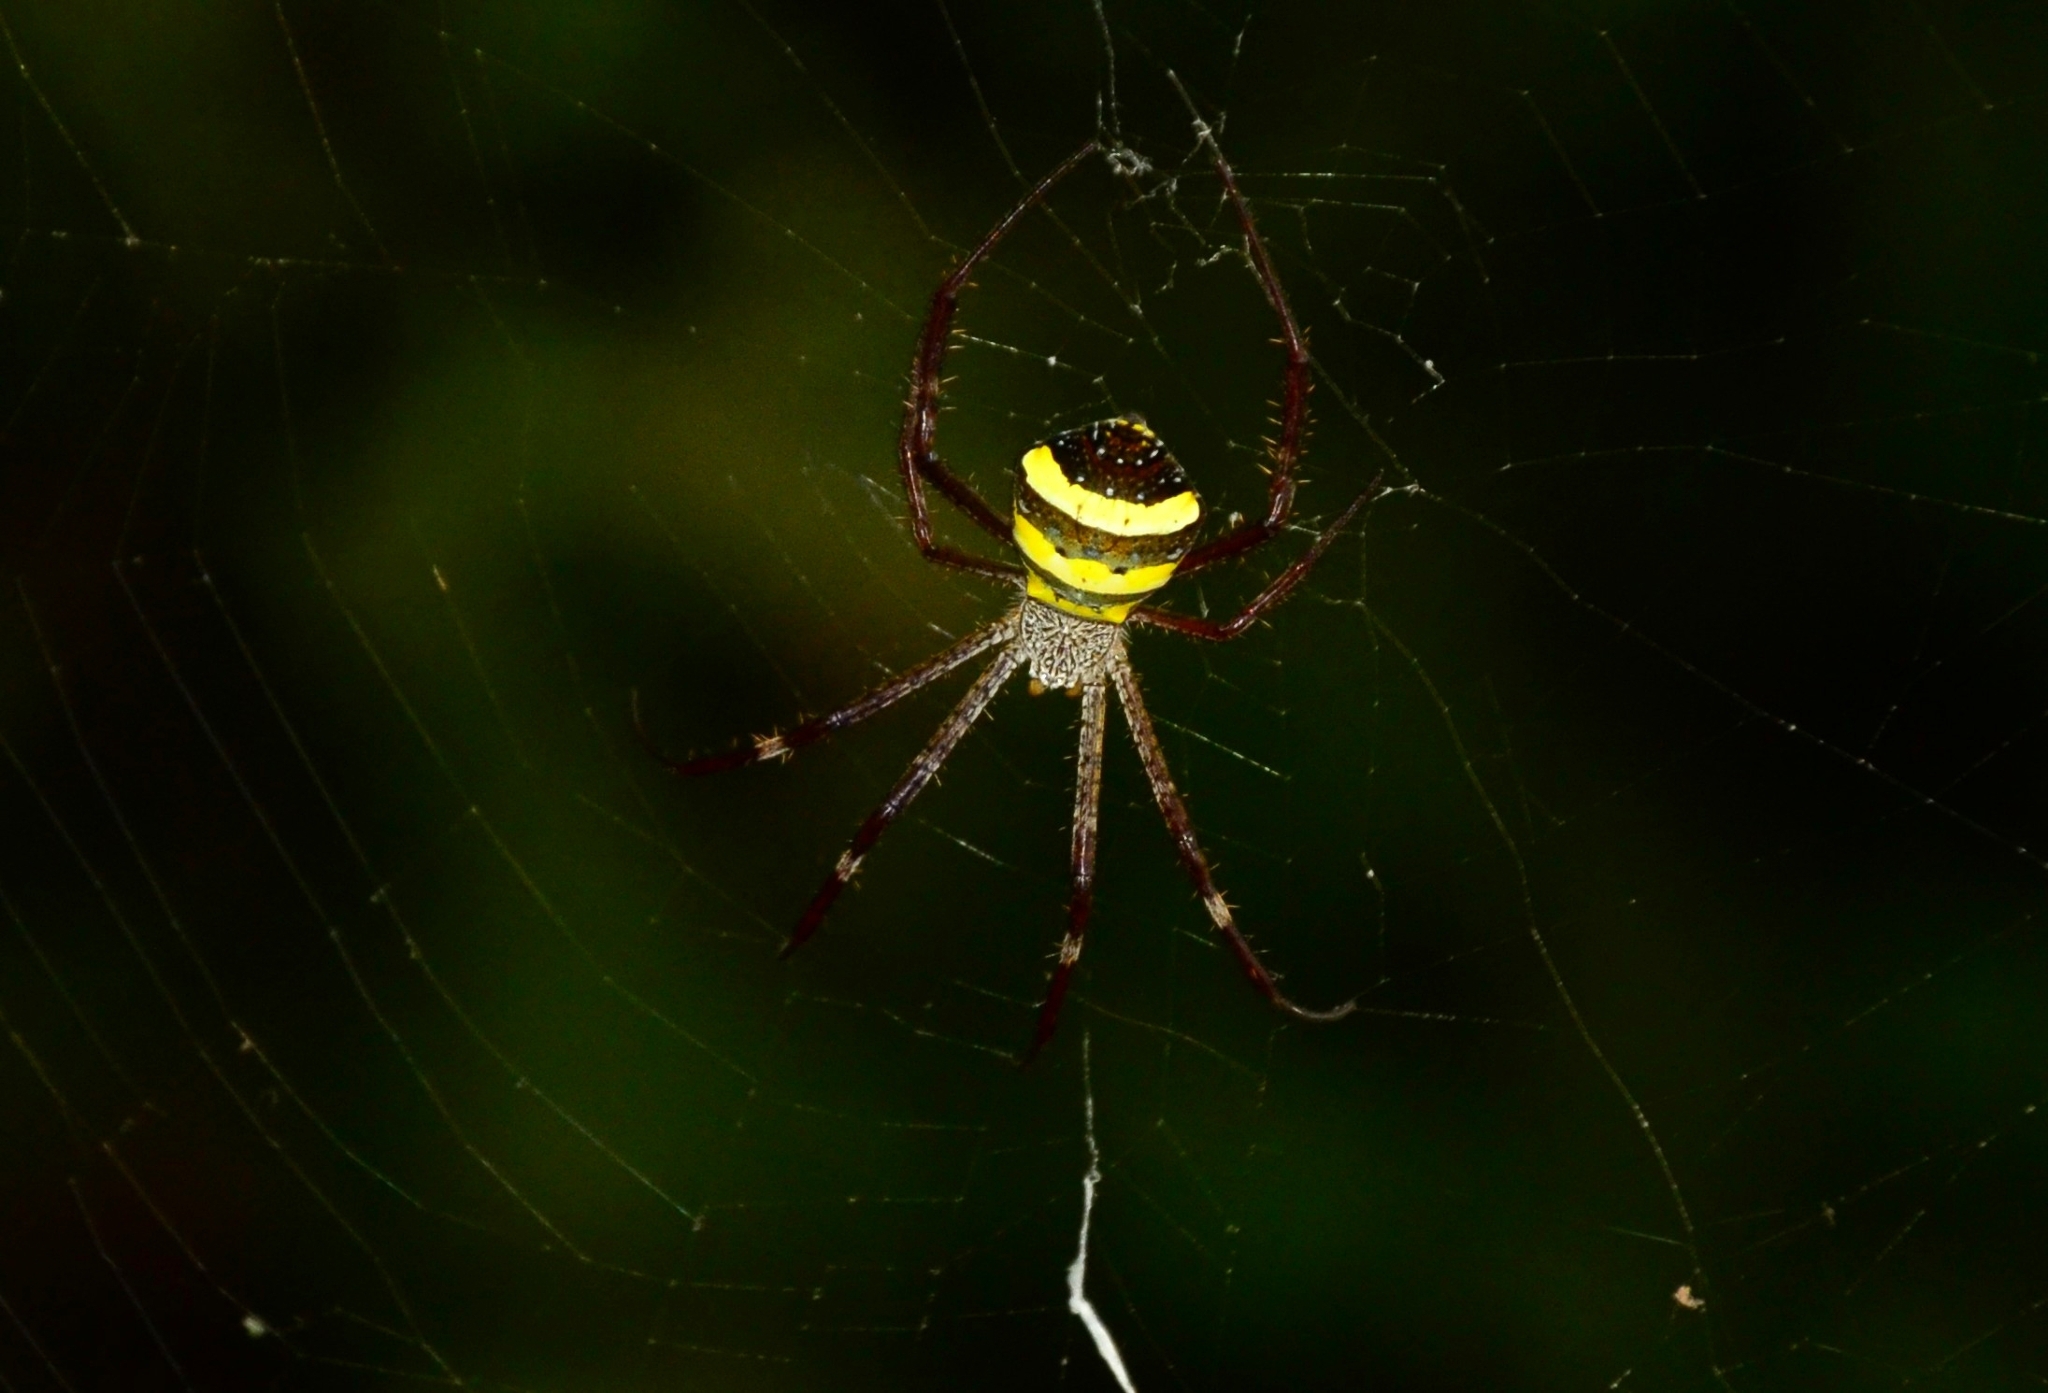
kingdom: Animalia
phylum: Arthropoda
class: Arachnida
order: Araneae
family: Araneidae
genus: Argiope
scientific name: Argiope taprobanica
